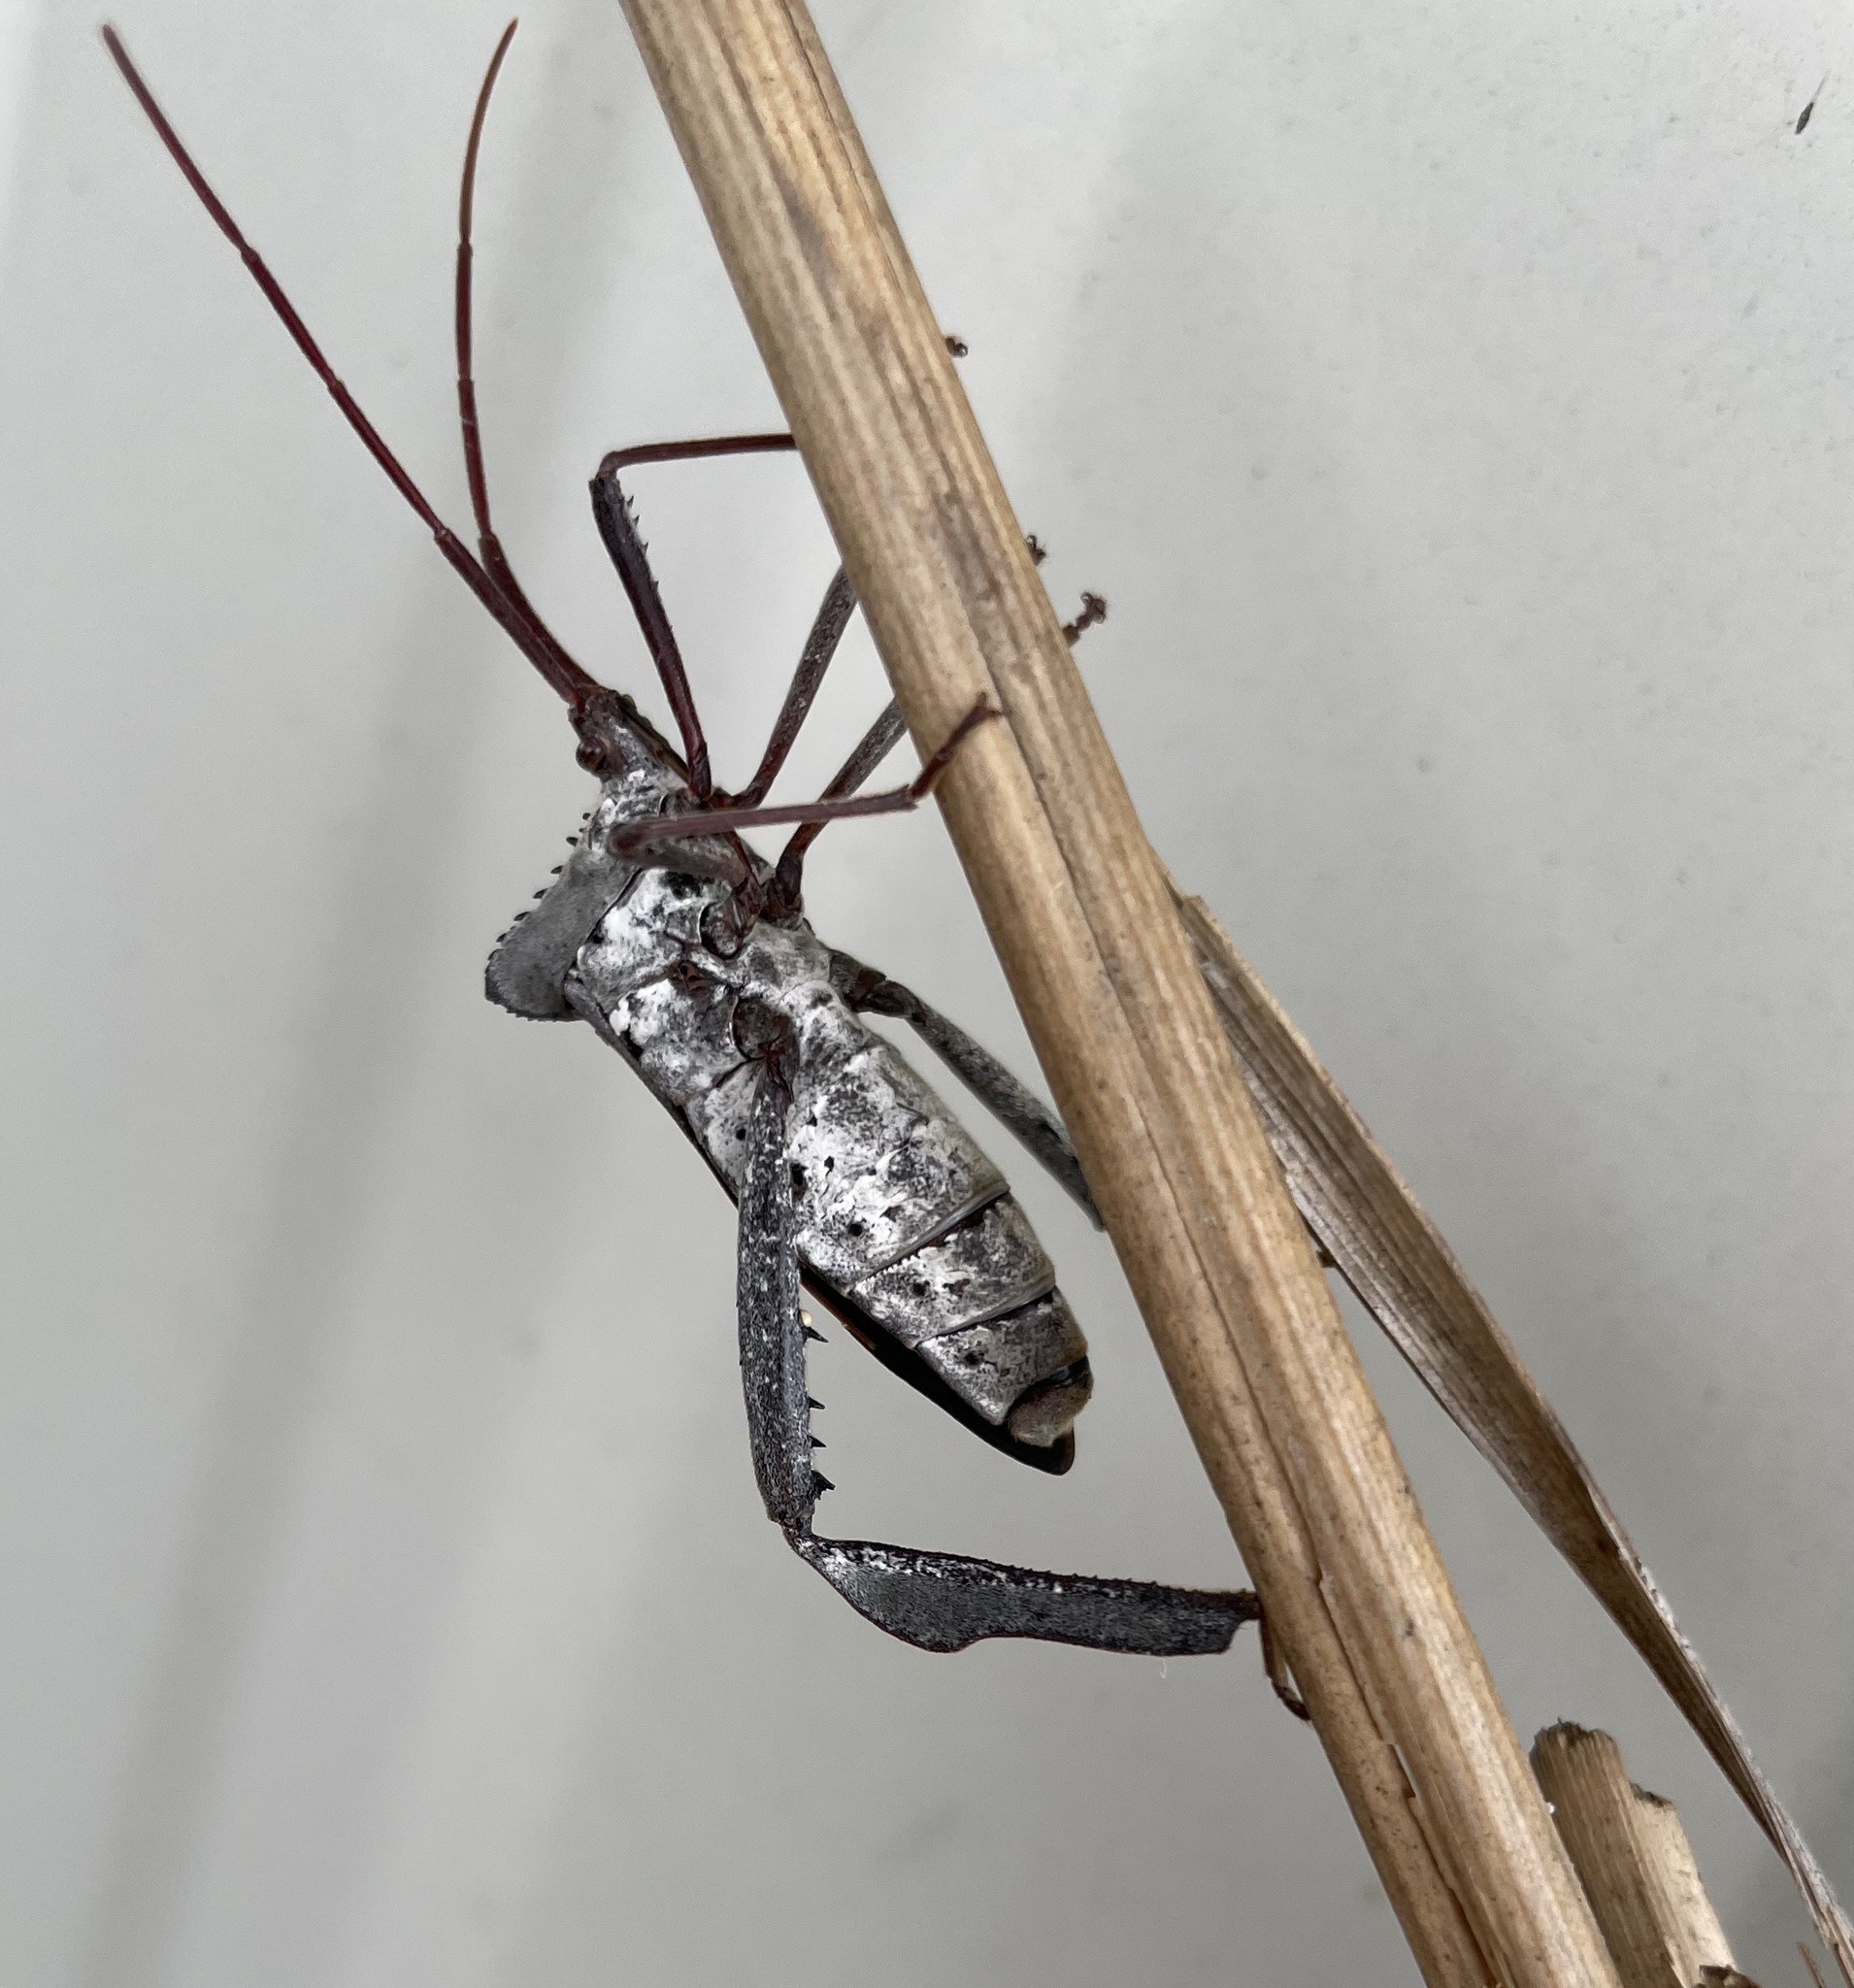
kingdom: Animalia
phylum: Arthropoda
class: Insecta
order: Hemiptera
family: Coreidae
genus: Acanthocephala
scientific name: Acanthocephala declivis
